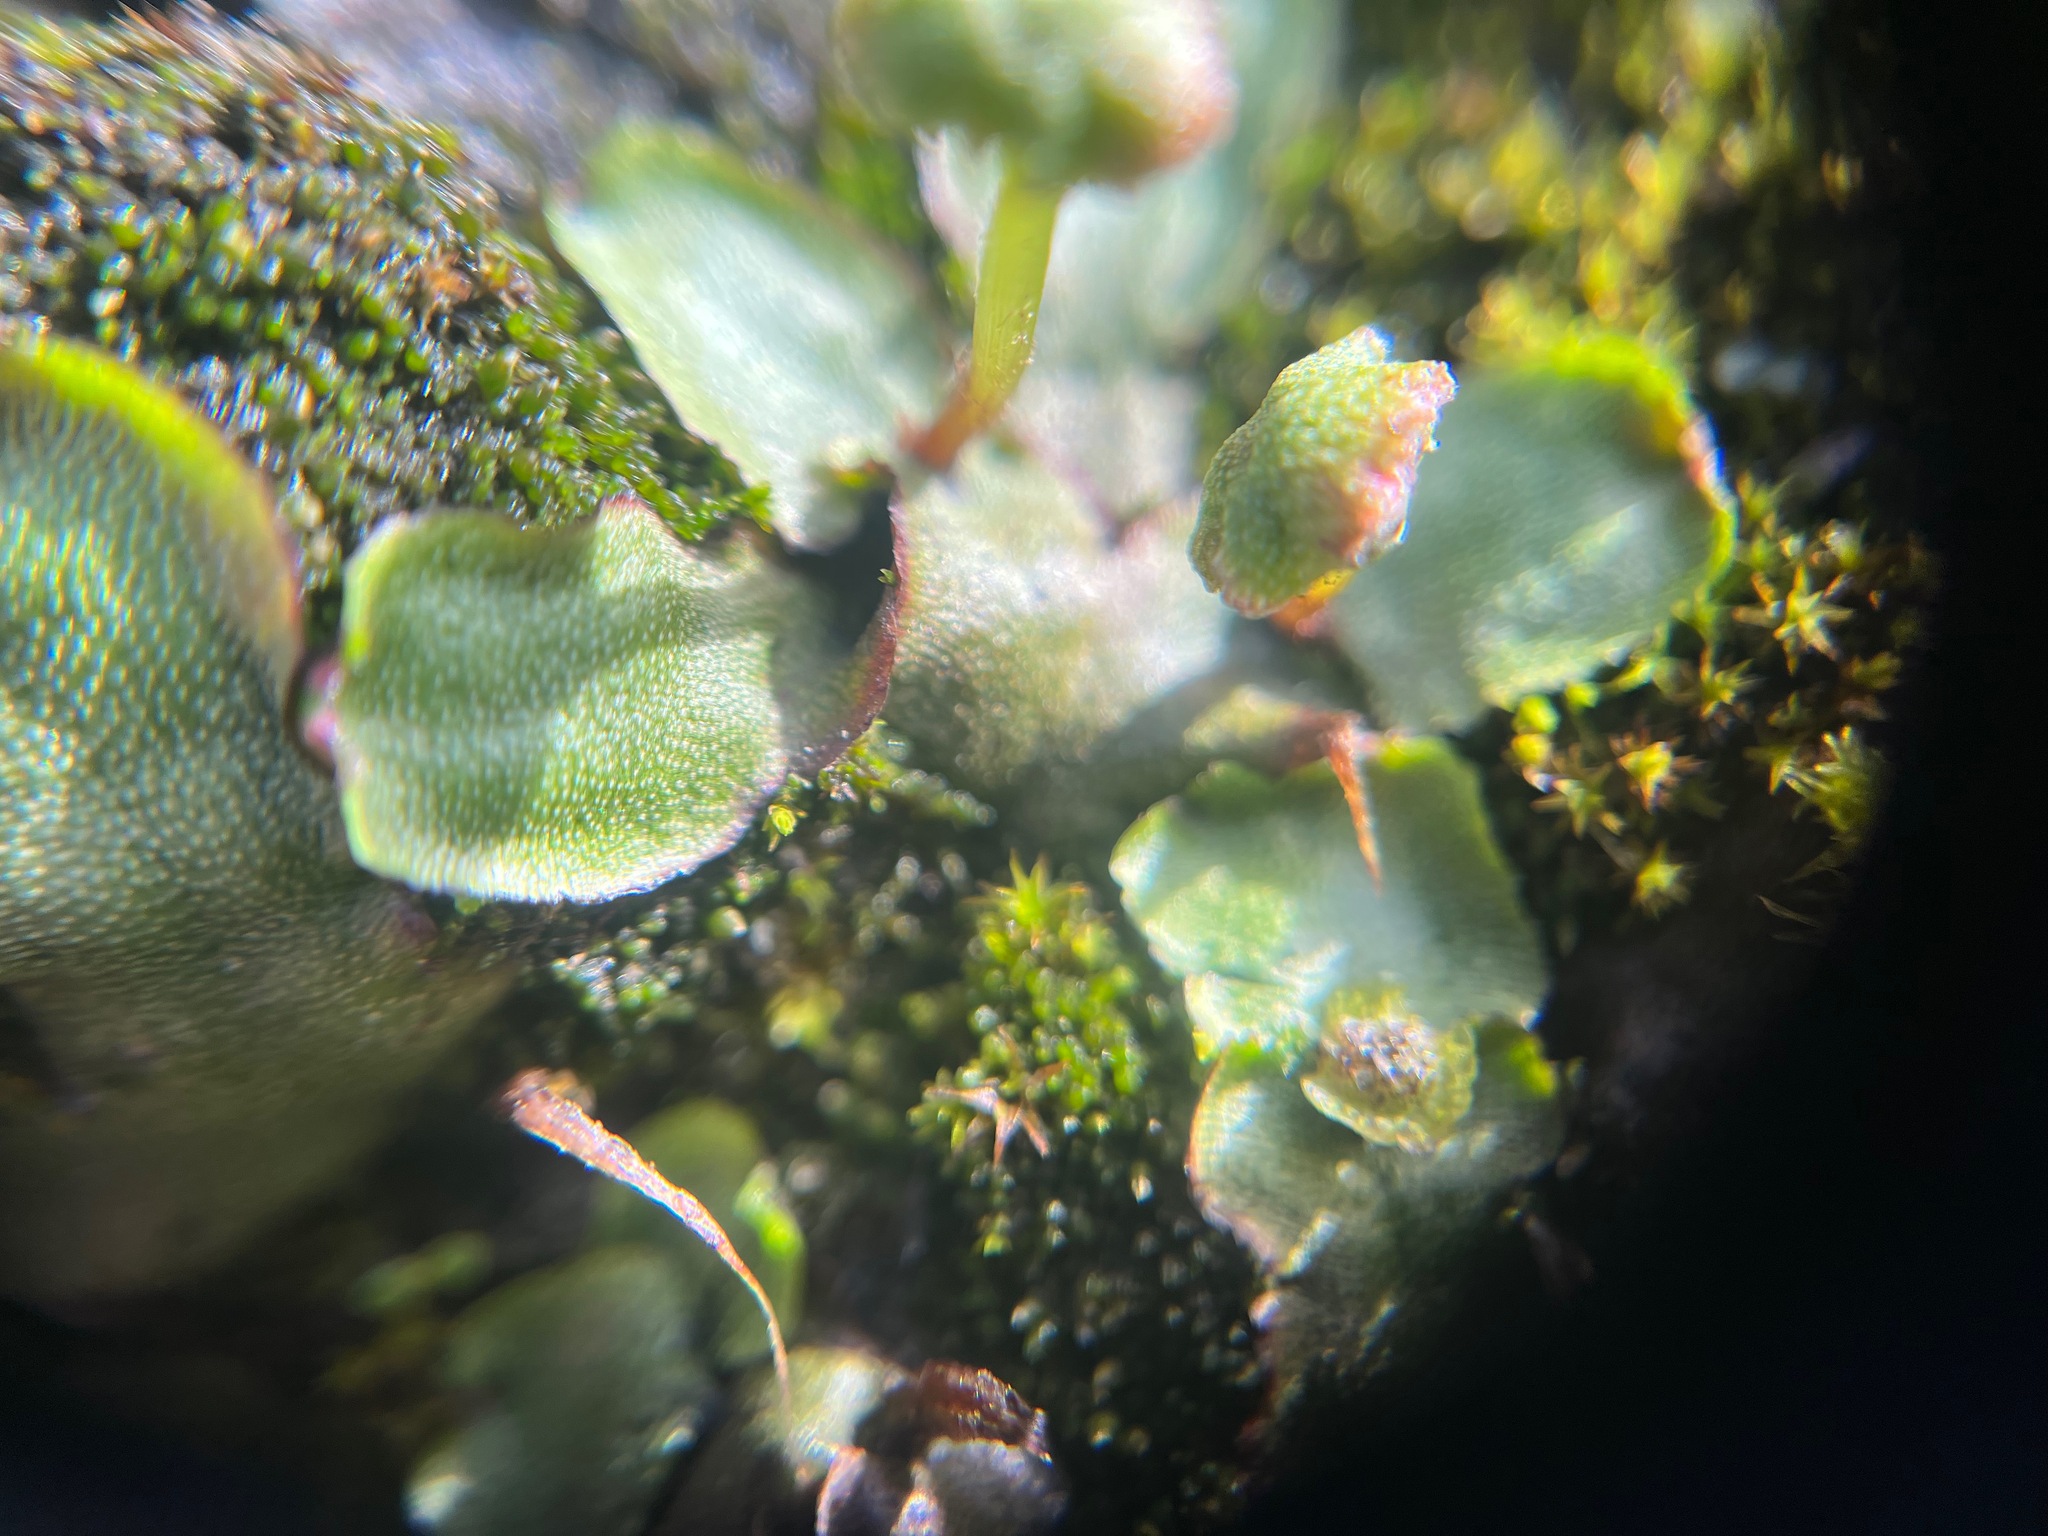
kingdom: Plantae
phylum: Marchantiophyta
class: Marchantiopsida
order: Marchantiales
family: Marchantiaceae
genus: Marchantia
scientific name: Marchantia quadrata
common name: Narrow mushroom-headed liverwort
